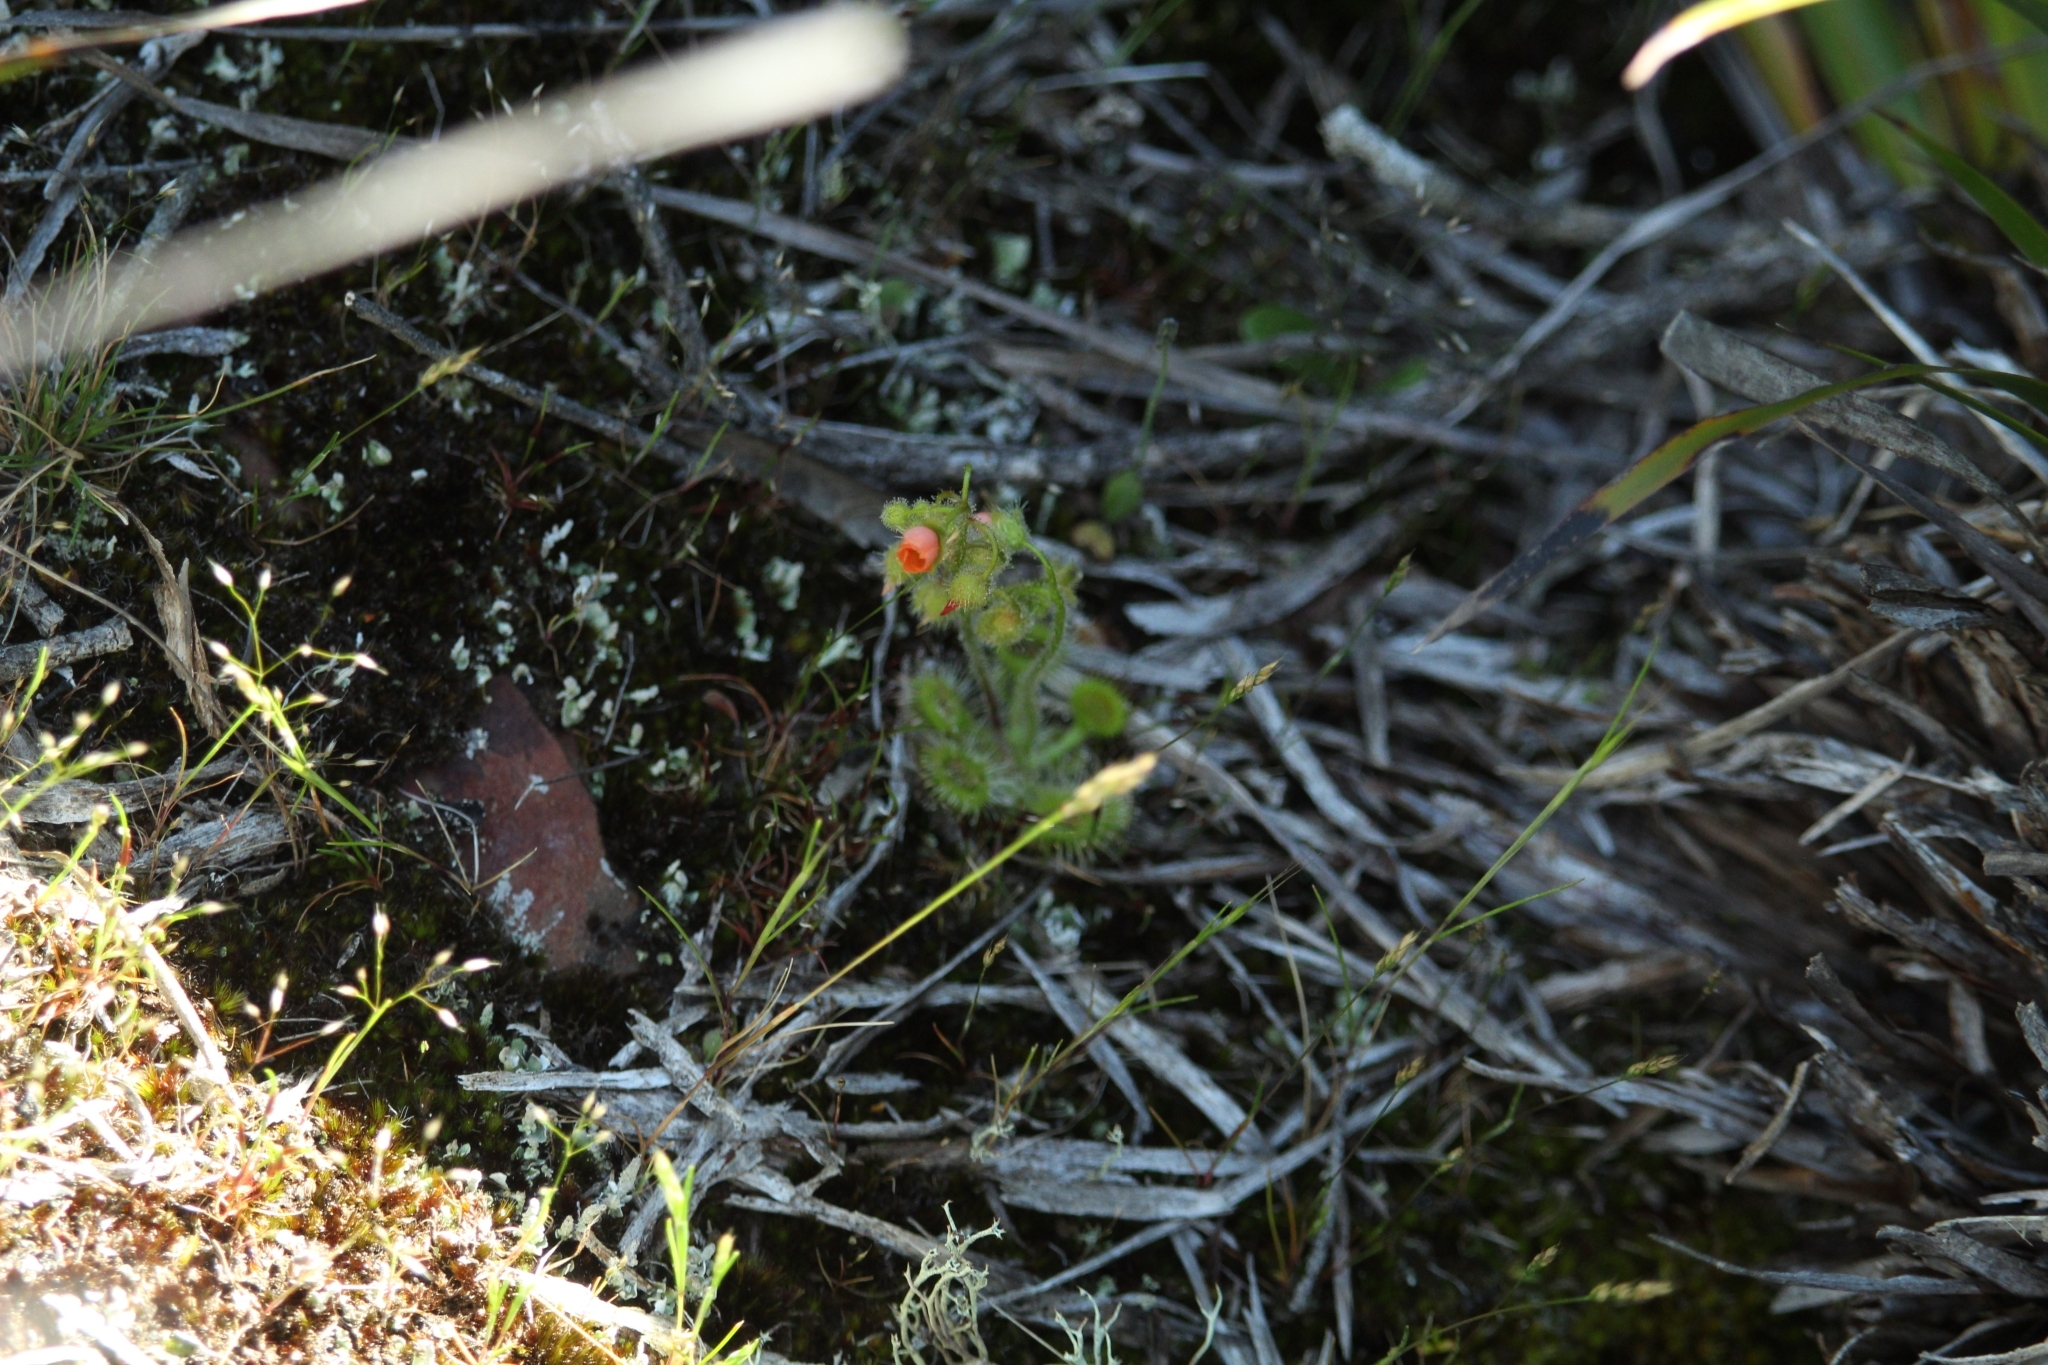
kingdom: Plantae
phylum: Tracheophyta
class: Magnoliopsida
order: Caryophyllales
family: Droseraceae
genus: Drosera
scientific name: Drosera glanduligera
